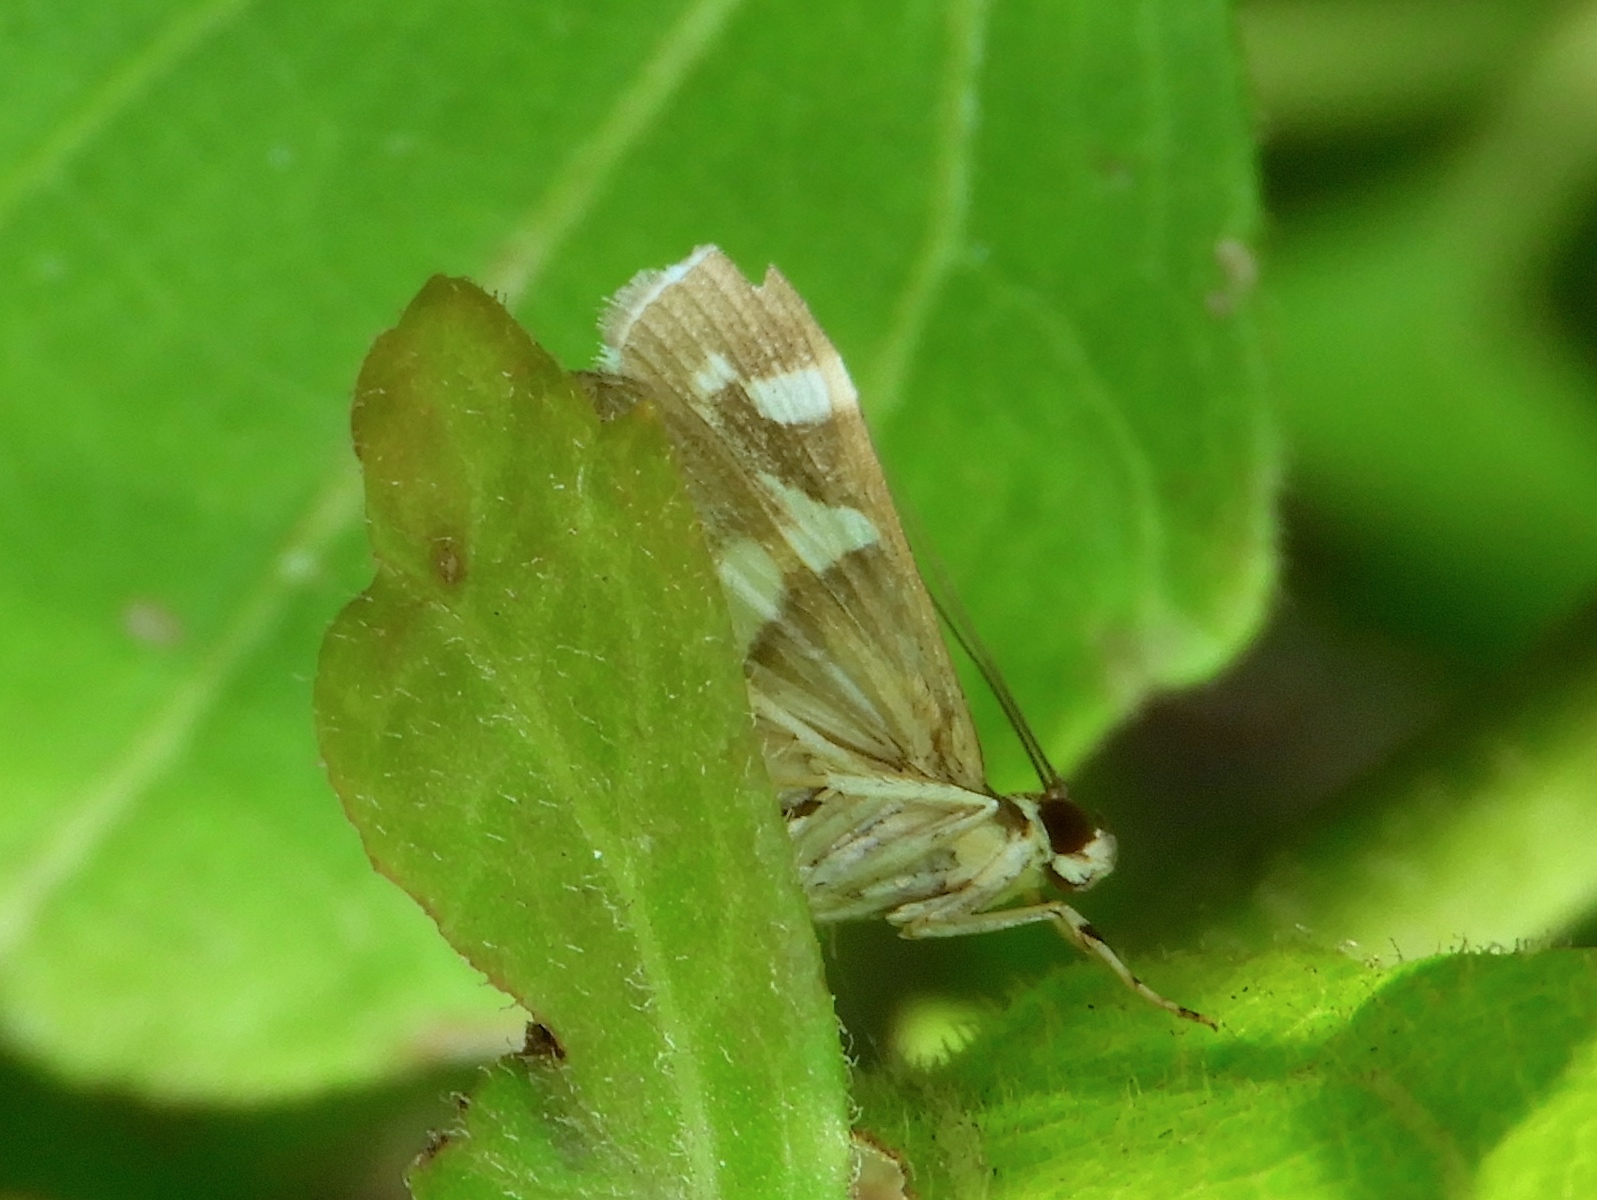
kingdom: Animalia
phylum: Arthropoda
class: Insecta
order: Lepidoptera
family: Crambidae
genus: Spoladea
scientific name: Spoladea recurvalis
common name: Beet webworm moth
